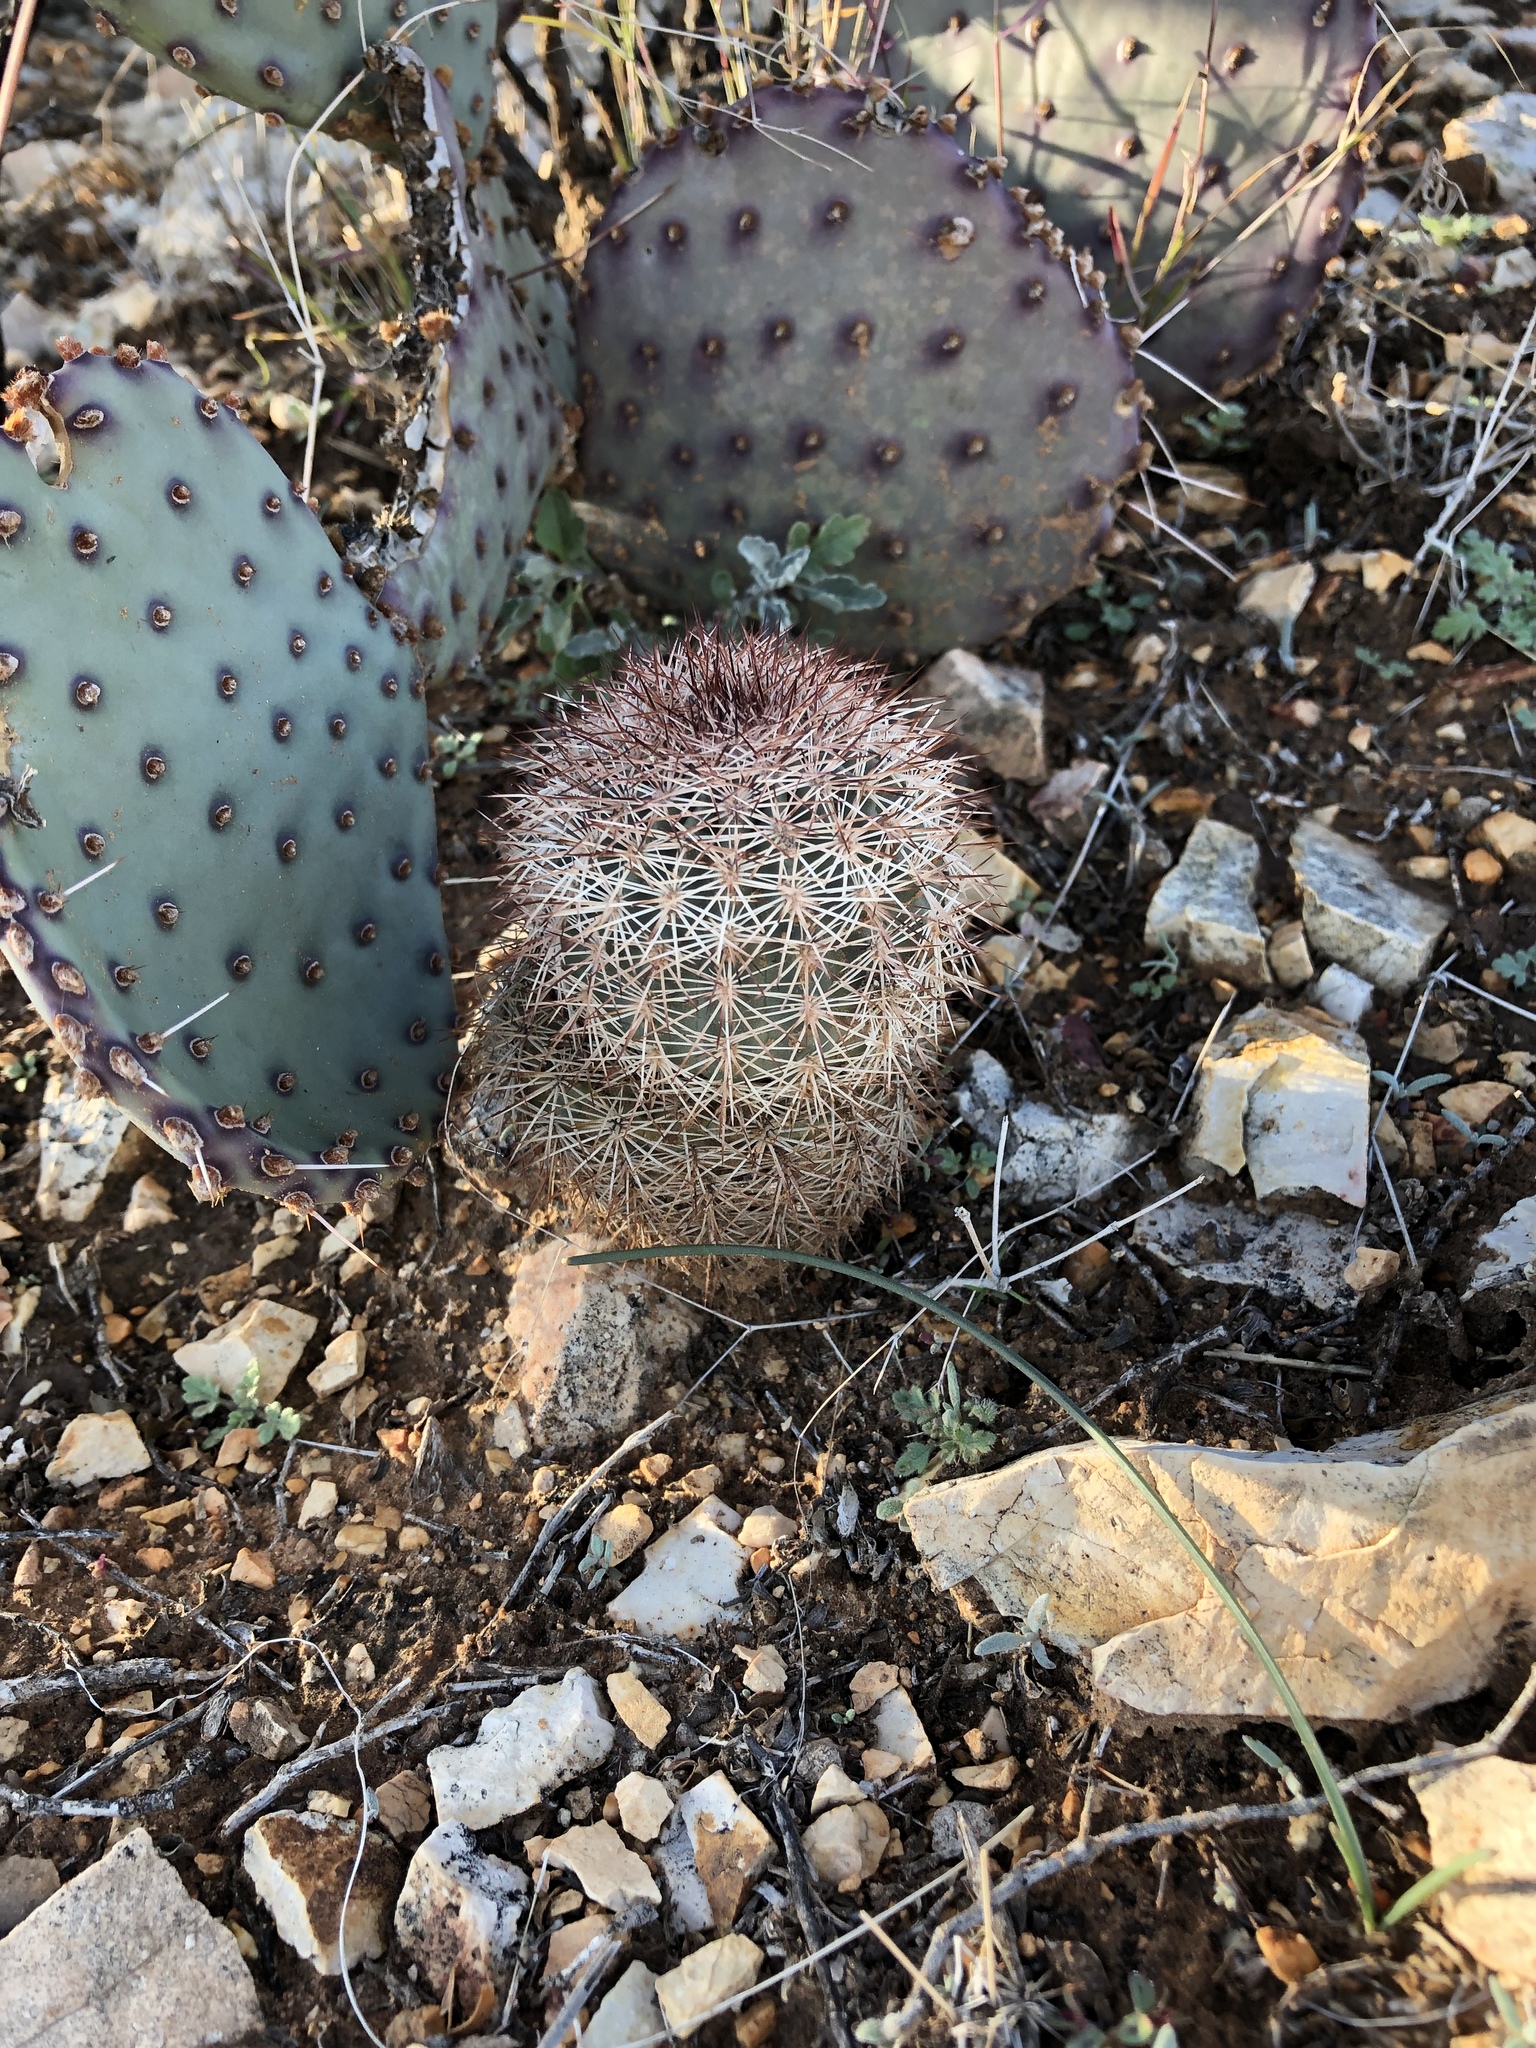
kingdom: Plantae
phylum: Tracheophyta
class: Magnoliopsida
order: Caryophyllales
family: Cactaceae
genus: Echinocereus
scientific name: Echinocereus dasyacanthus
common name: Spiny hedgehog cactus
